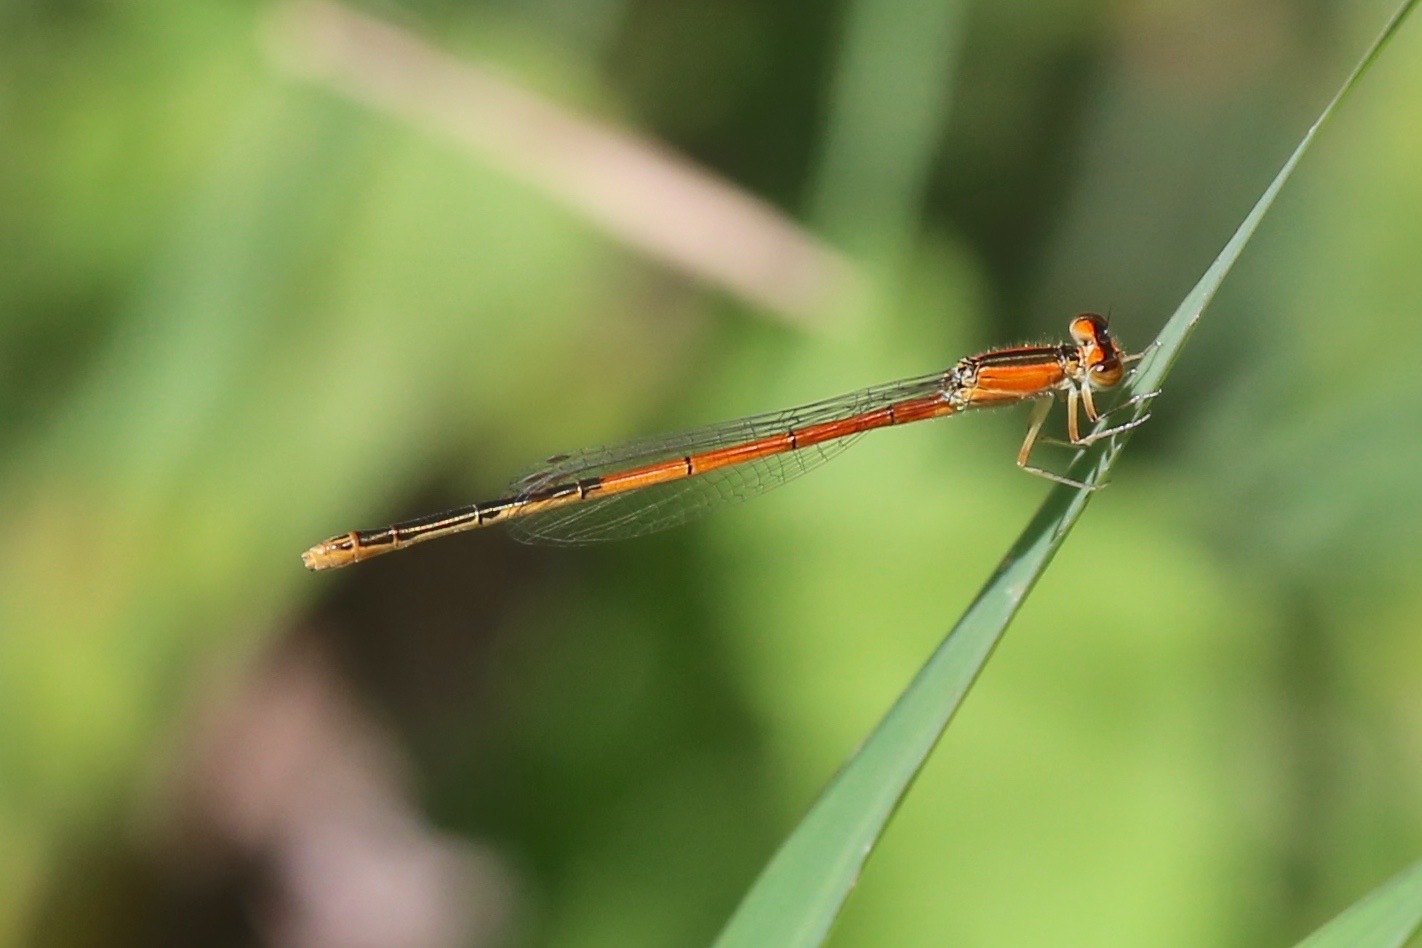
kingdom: Animalia
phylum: Arthropoda
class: Insecta
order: Odonata
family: Coenagrionidae
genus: Ischnura
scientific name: Ischnura hastata
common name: Citrine forktail
